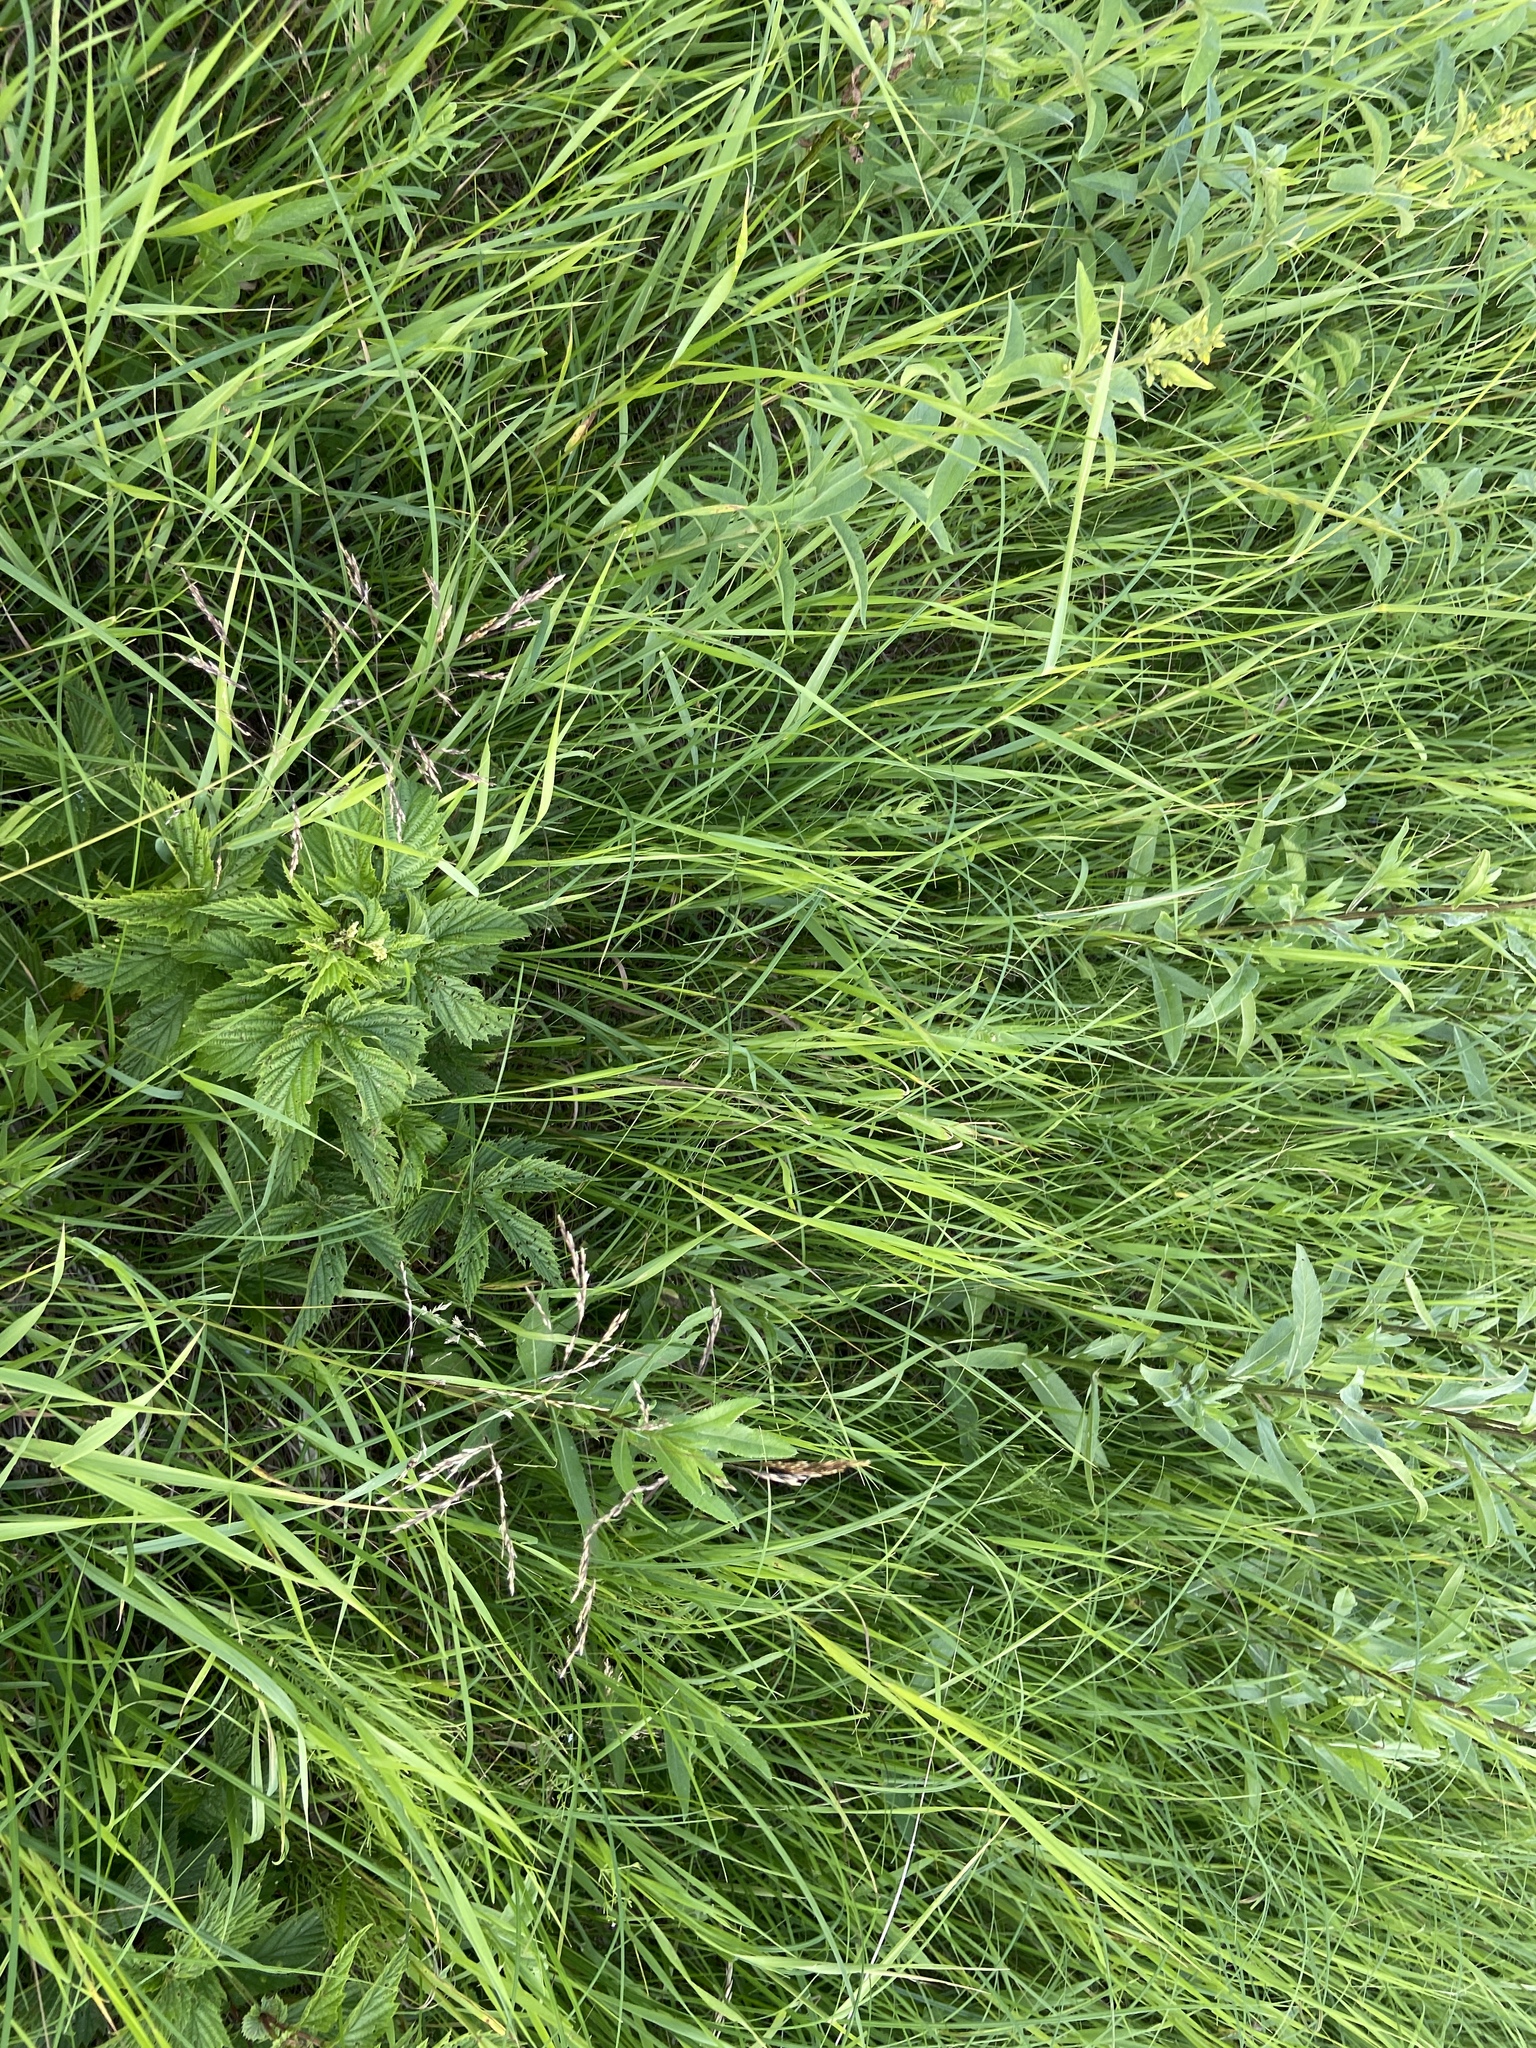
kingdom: Plantae
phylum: Tracheophyta
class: Magnoliopsida
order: Rosales
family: Rosaceae
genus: Filipendula
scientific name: Filipendula ulmaria
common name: Meadowsweet
